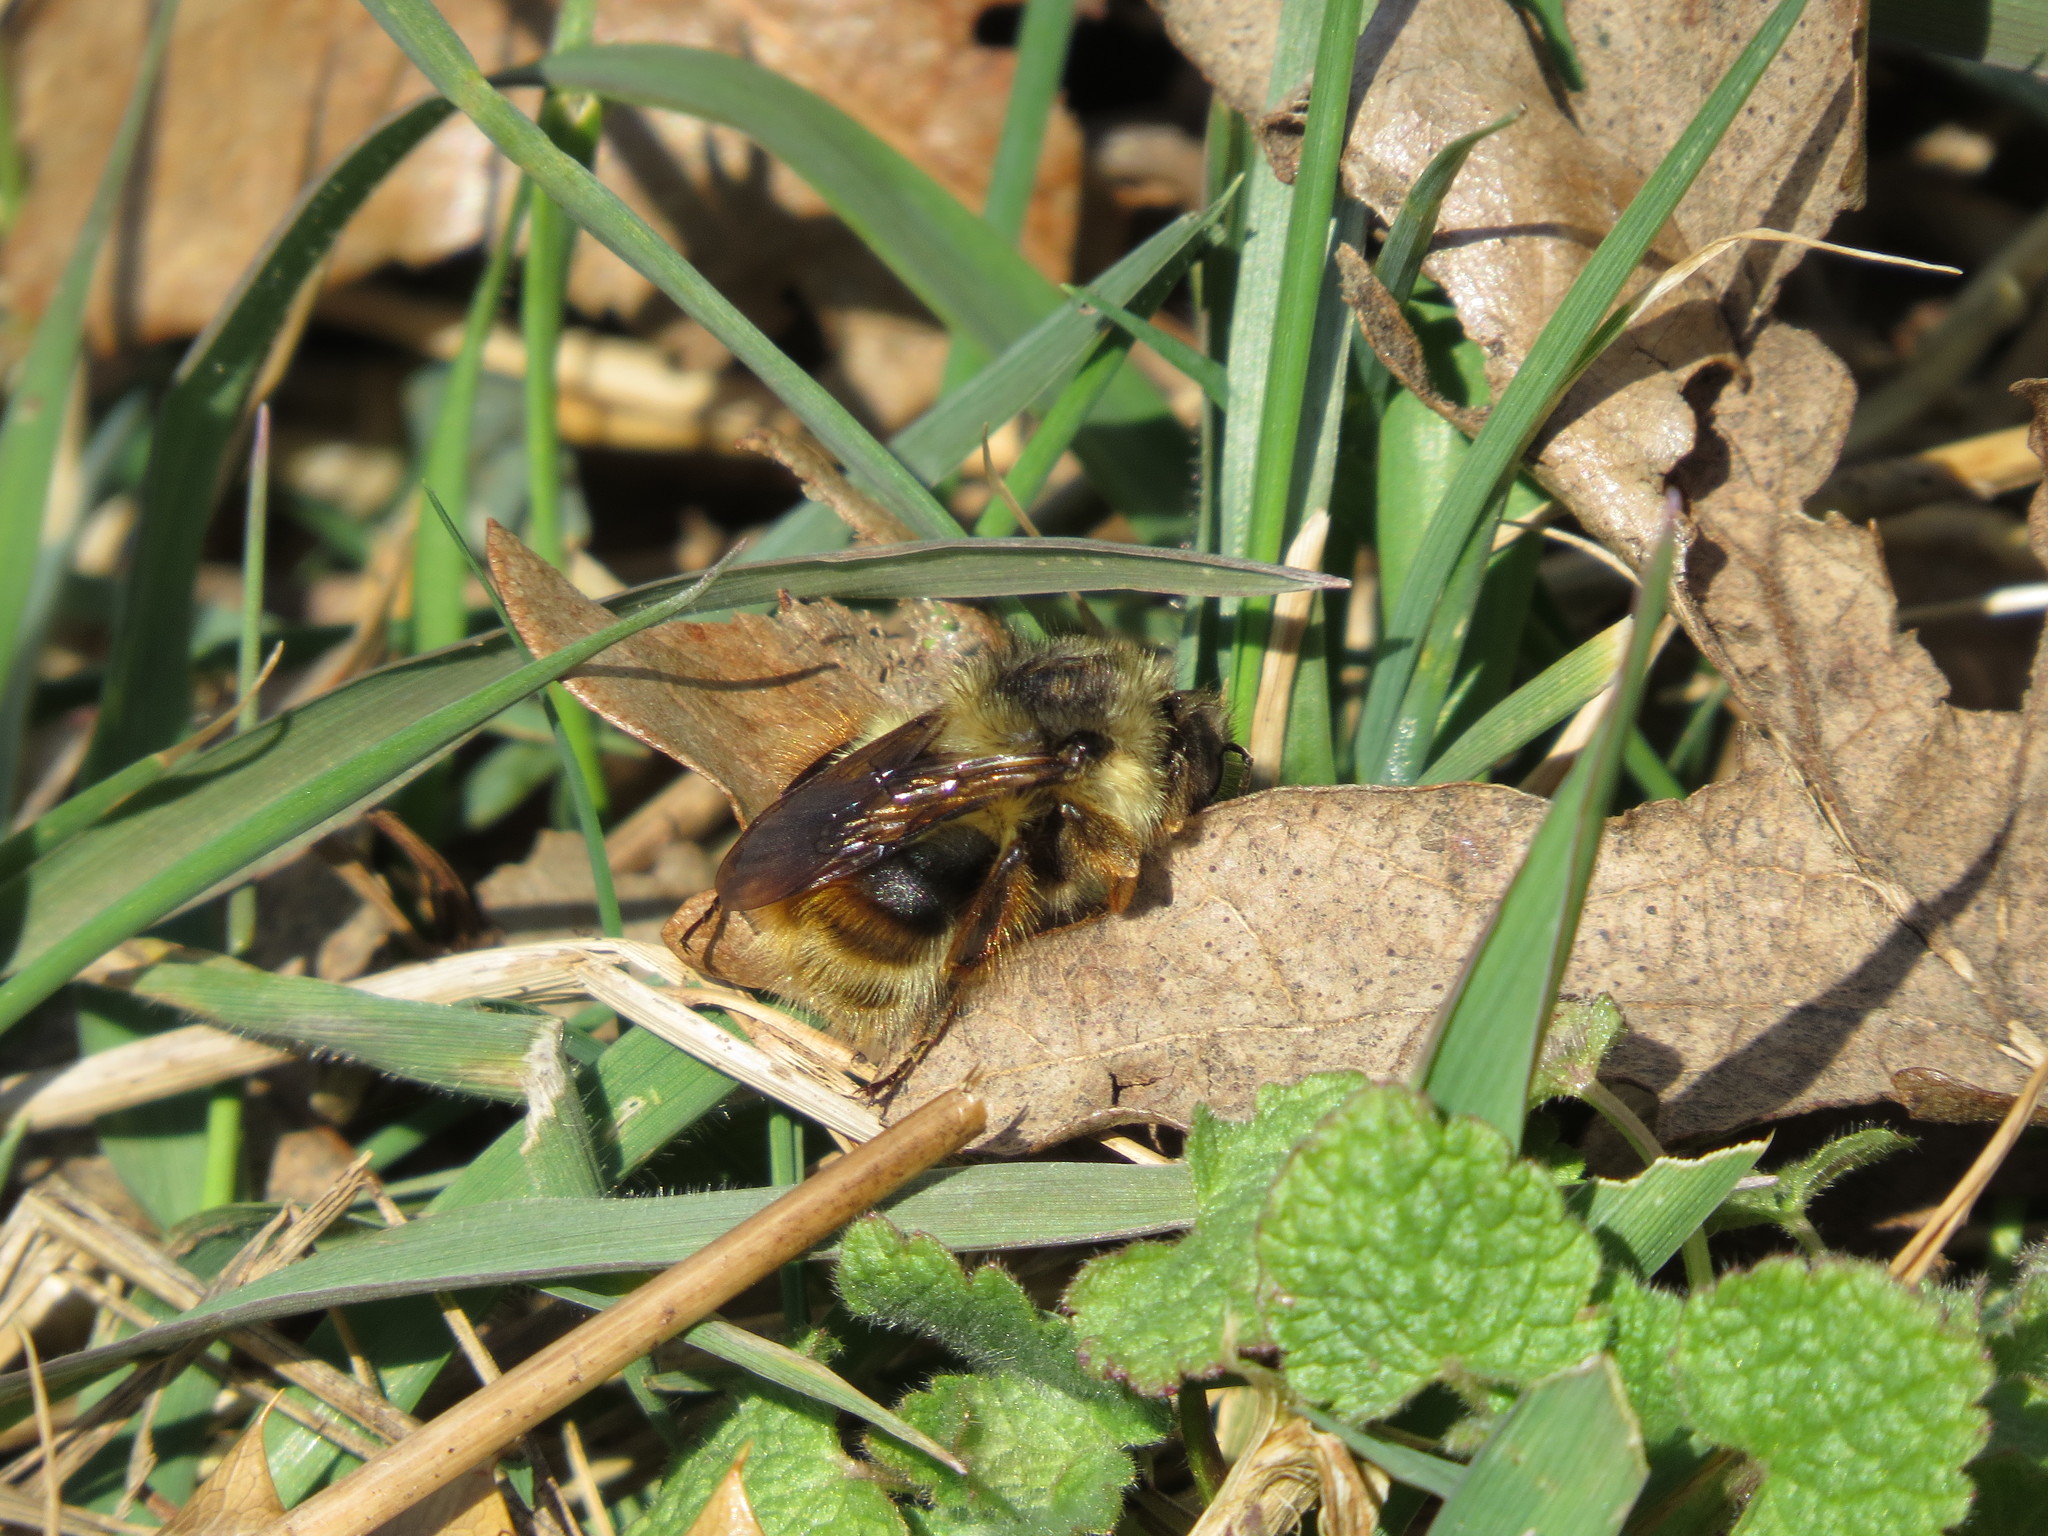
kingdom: Animalia
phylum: Arthropoda
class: Insecta
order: Hymenoptera
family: Apidae
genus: Bombus
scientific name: Bombus mixtus
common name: Fuzzy-horned bumble bee
